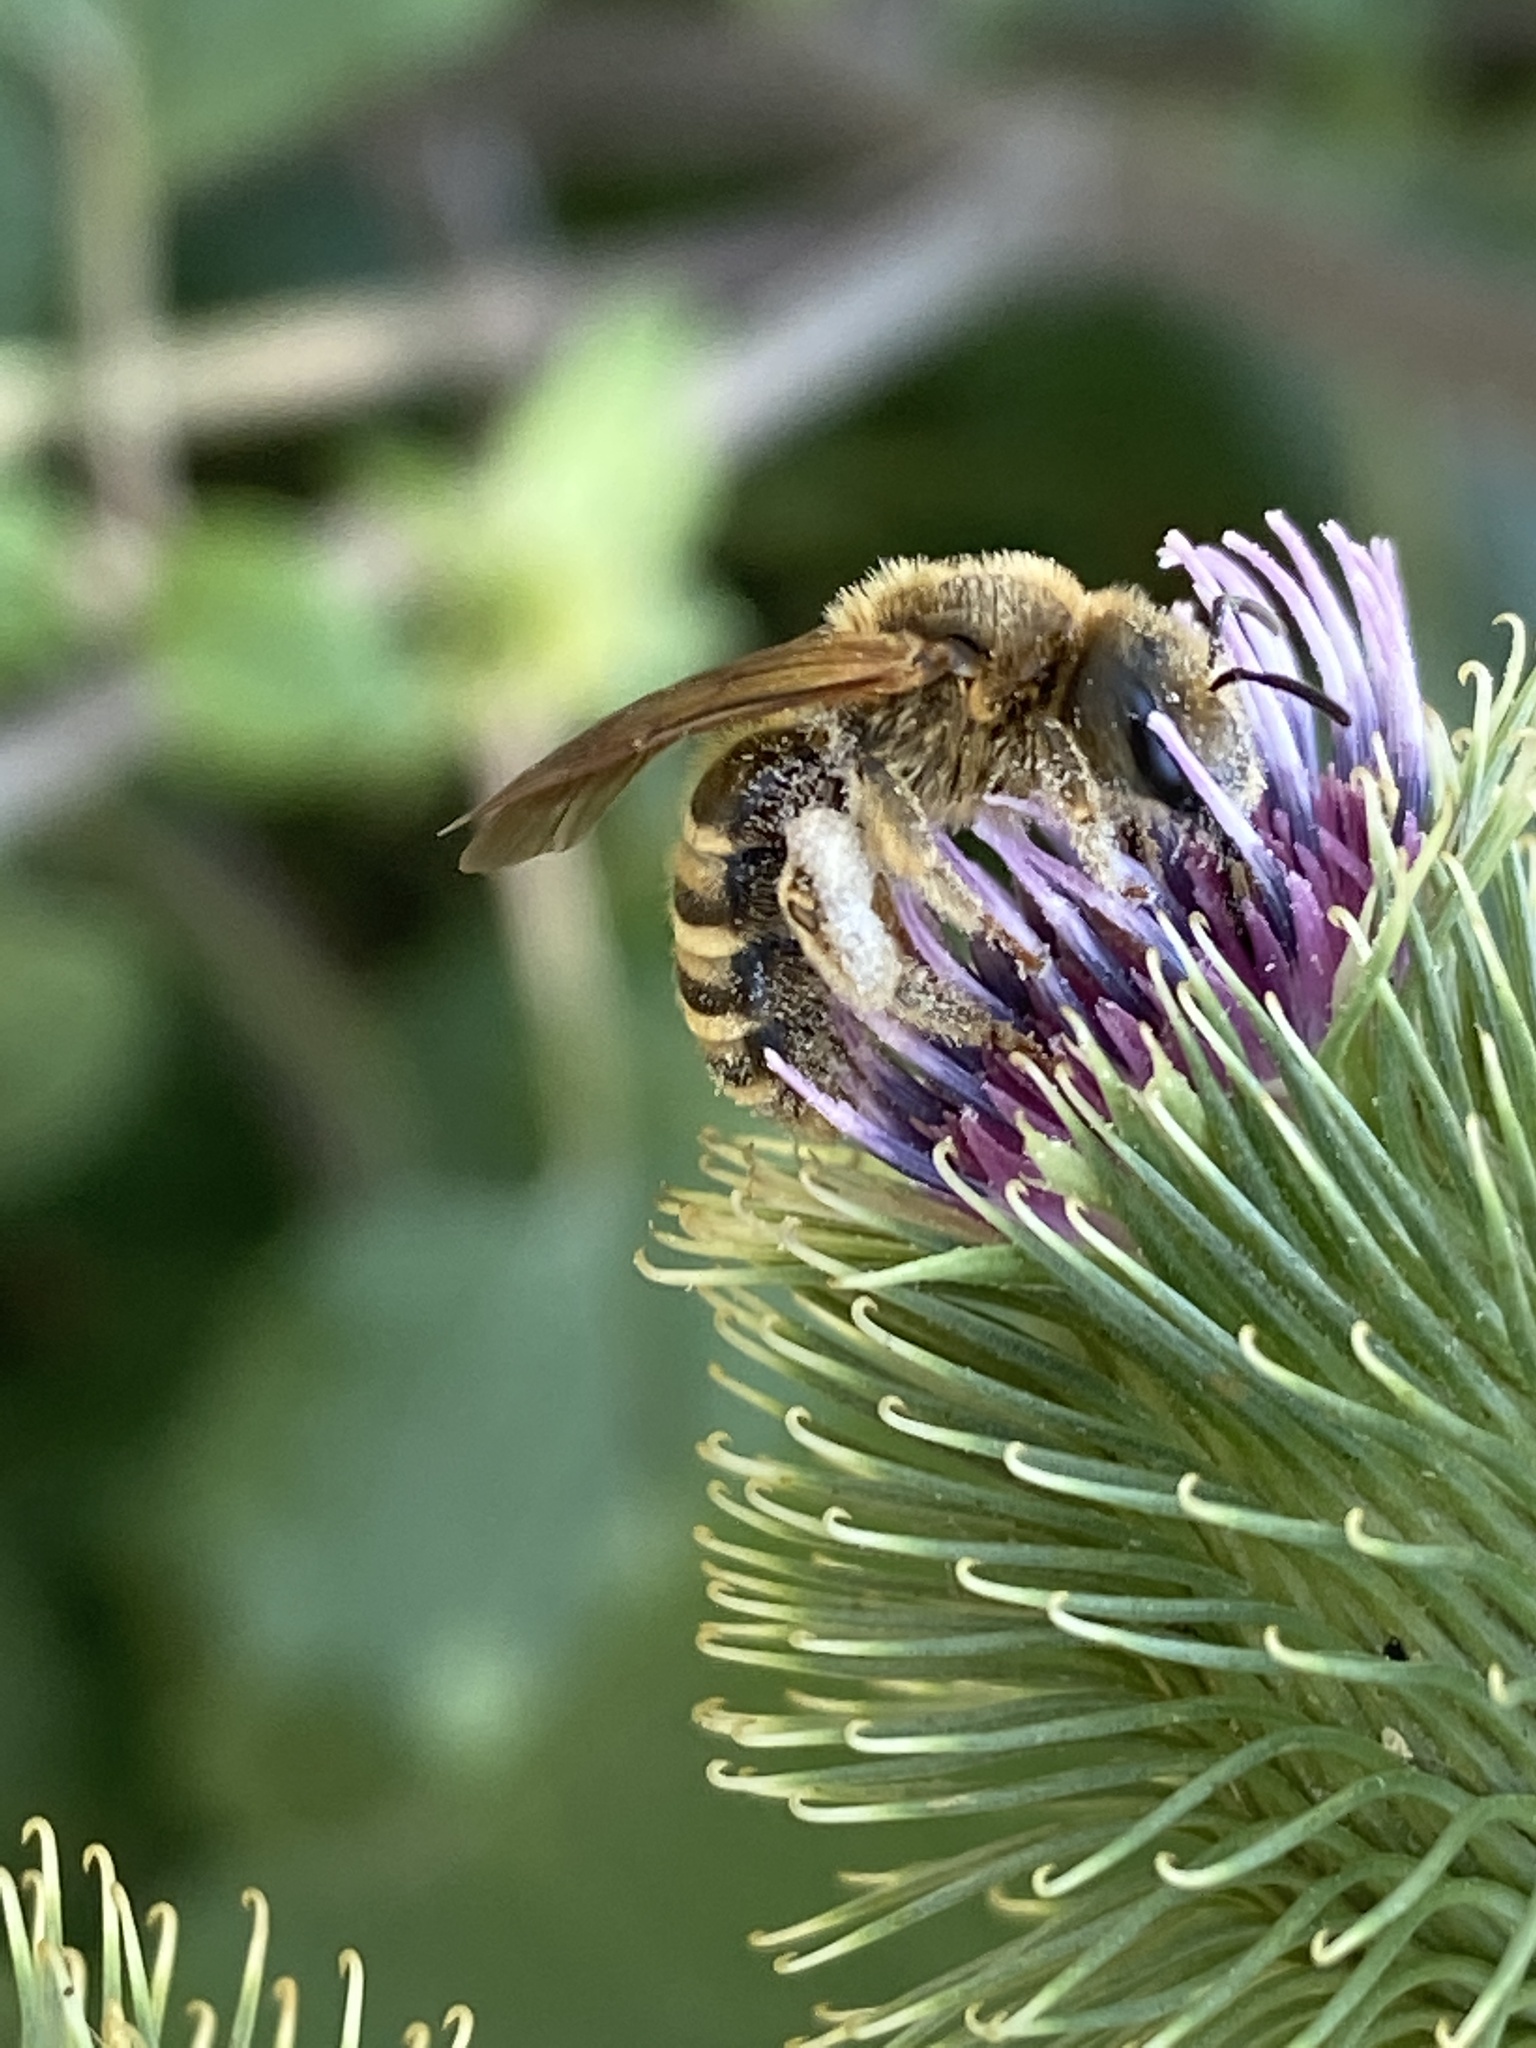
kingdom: Animalia
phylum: Arthropoda
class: Insecta
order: Hymenoptera
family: Halictidae
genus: Halictus
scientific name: Halictus scabiosae
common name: Great banded furrow bee
